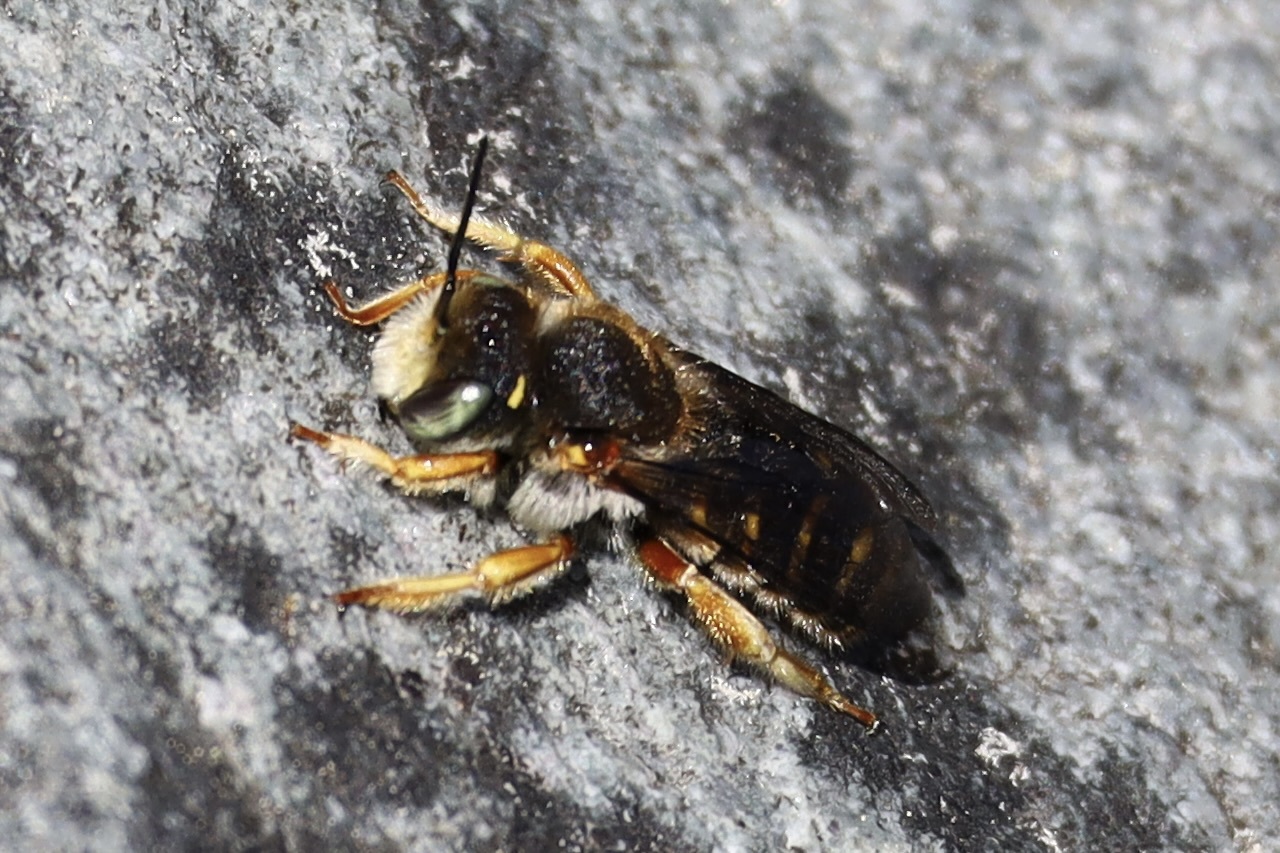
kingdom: Animalia
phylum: Arthropoda
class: Insecta
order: Hymenoptera
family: Megachilidae
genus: Anthidium
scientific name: Anthidium oblongatum
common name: Oblong wool carder bee
